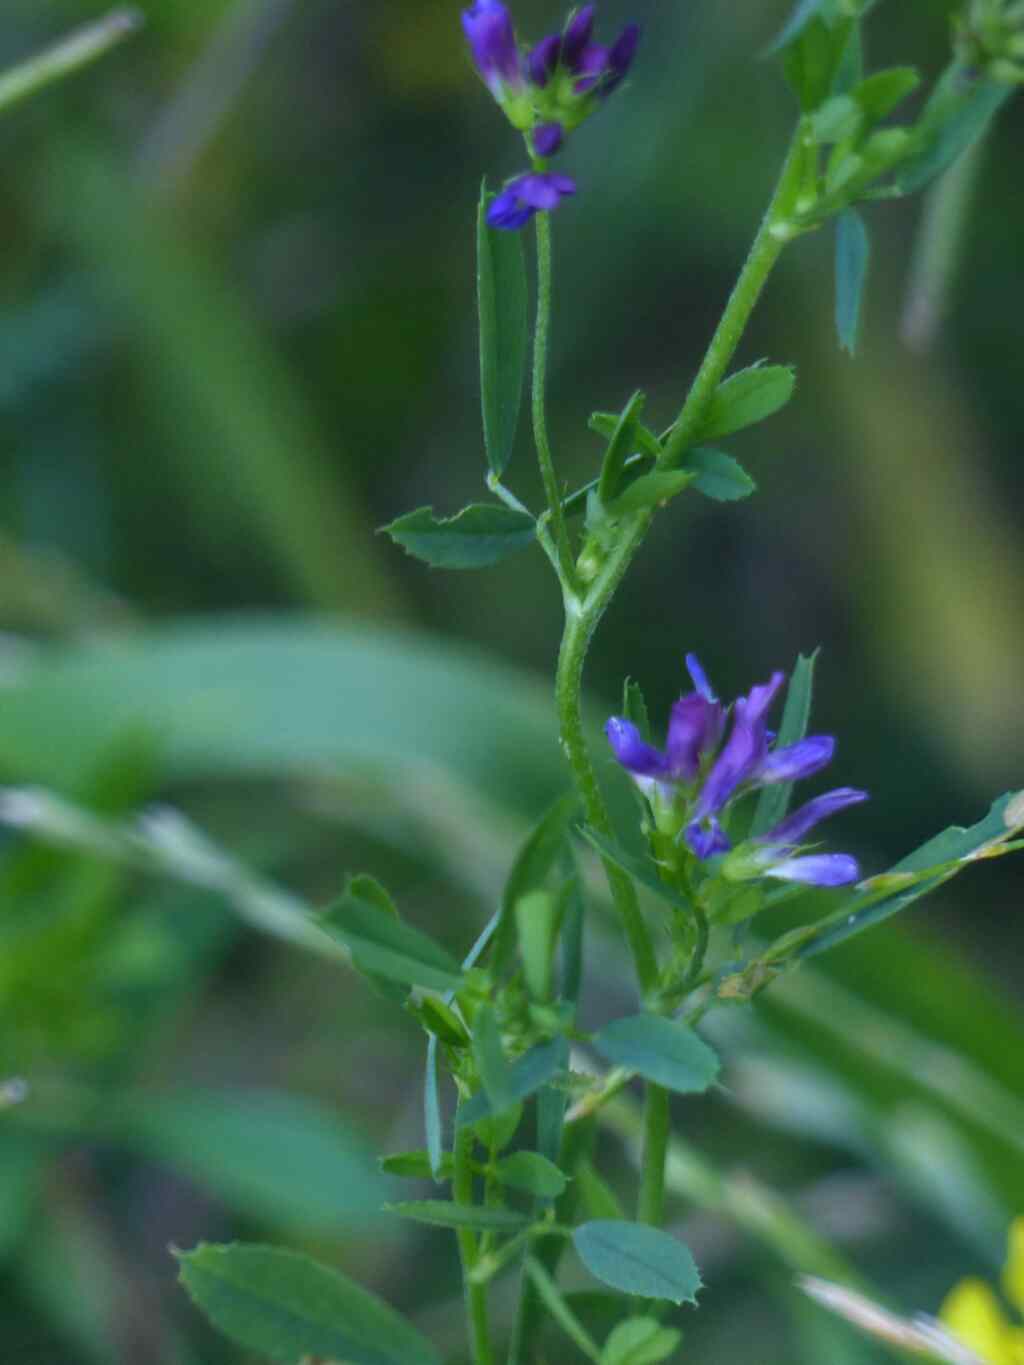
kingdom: Plantae
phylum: Tracheophyta
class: Magnoliopsida
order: Fabales
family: Fabaceae
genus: Medicago
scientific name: Medicago sativa
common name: Alfalfa
